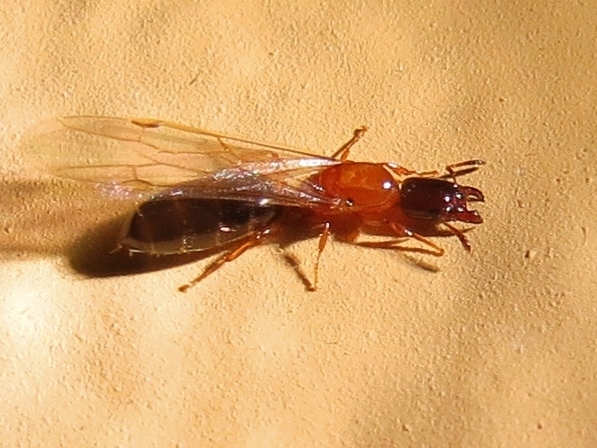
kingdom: Animalia
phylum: Arthropoda
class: Insecta
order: Hymenoptera
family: Formicidae
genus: Myrmelachista
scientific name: Myrmelachista ramulorum
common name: Ant
